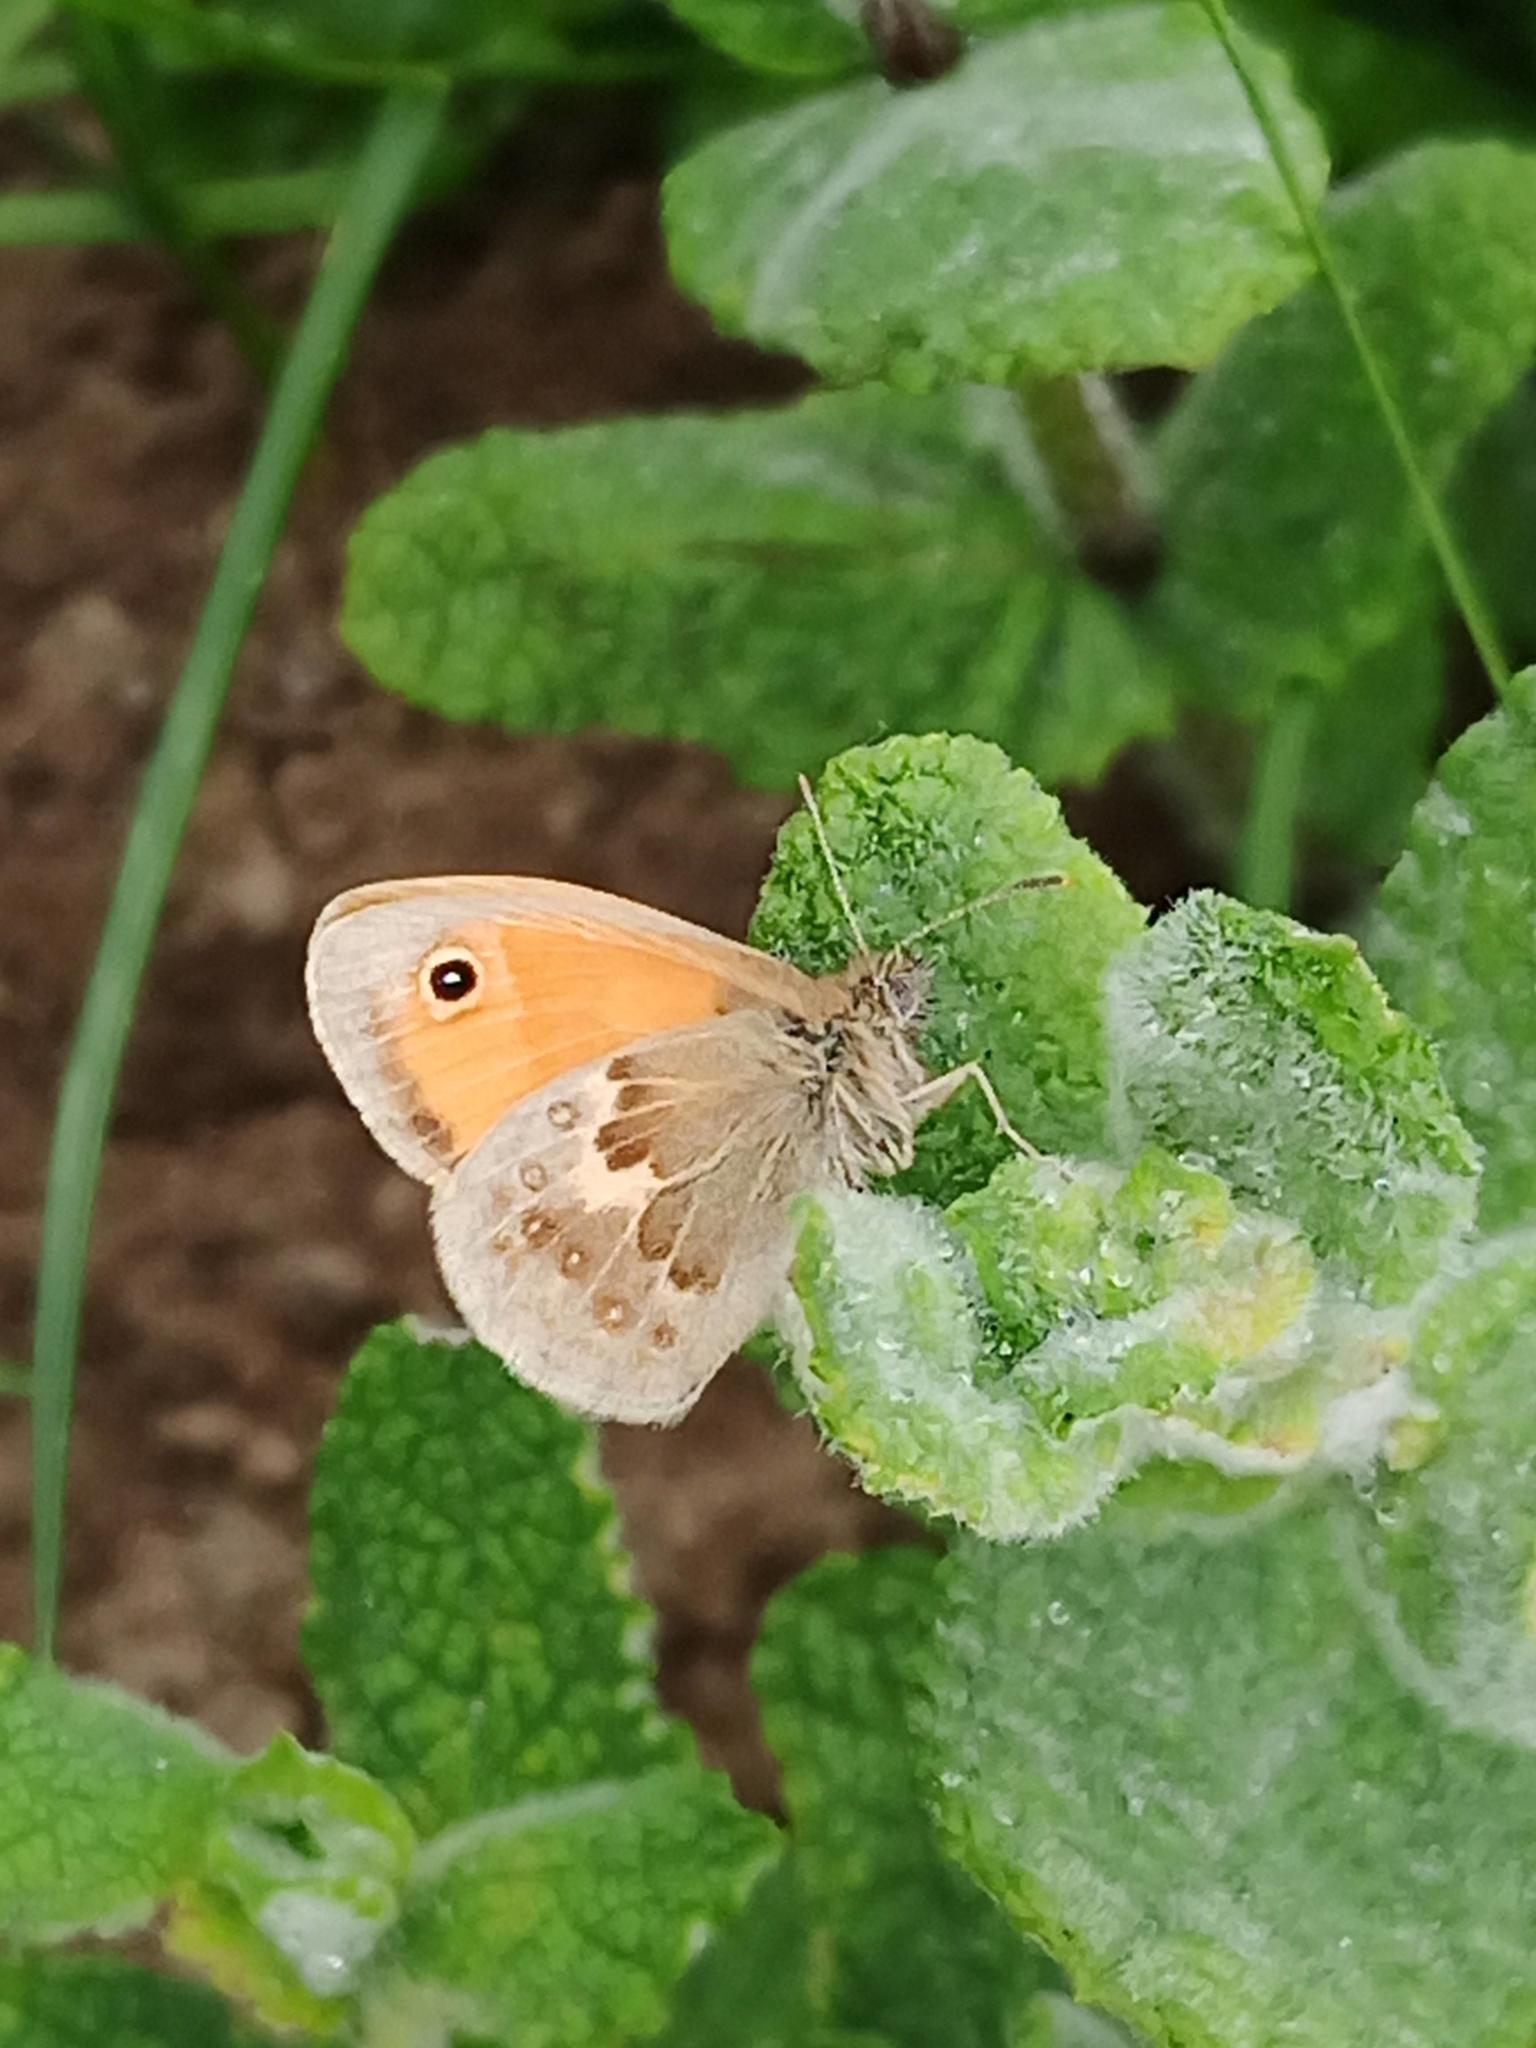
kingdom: Animalia
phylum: Arthropoda
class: Insecta
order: Lepidoptera
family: Nymphalidae
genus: Coenonympha
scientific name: Coenonympha pamphilus
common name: Small heath
